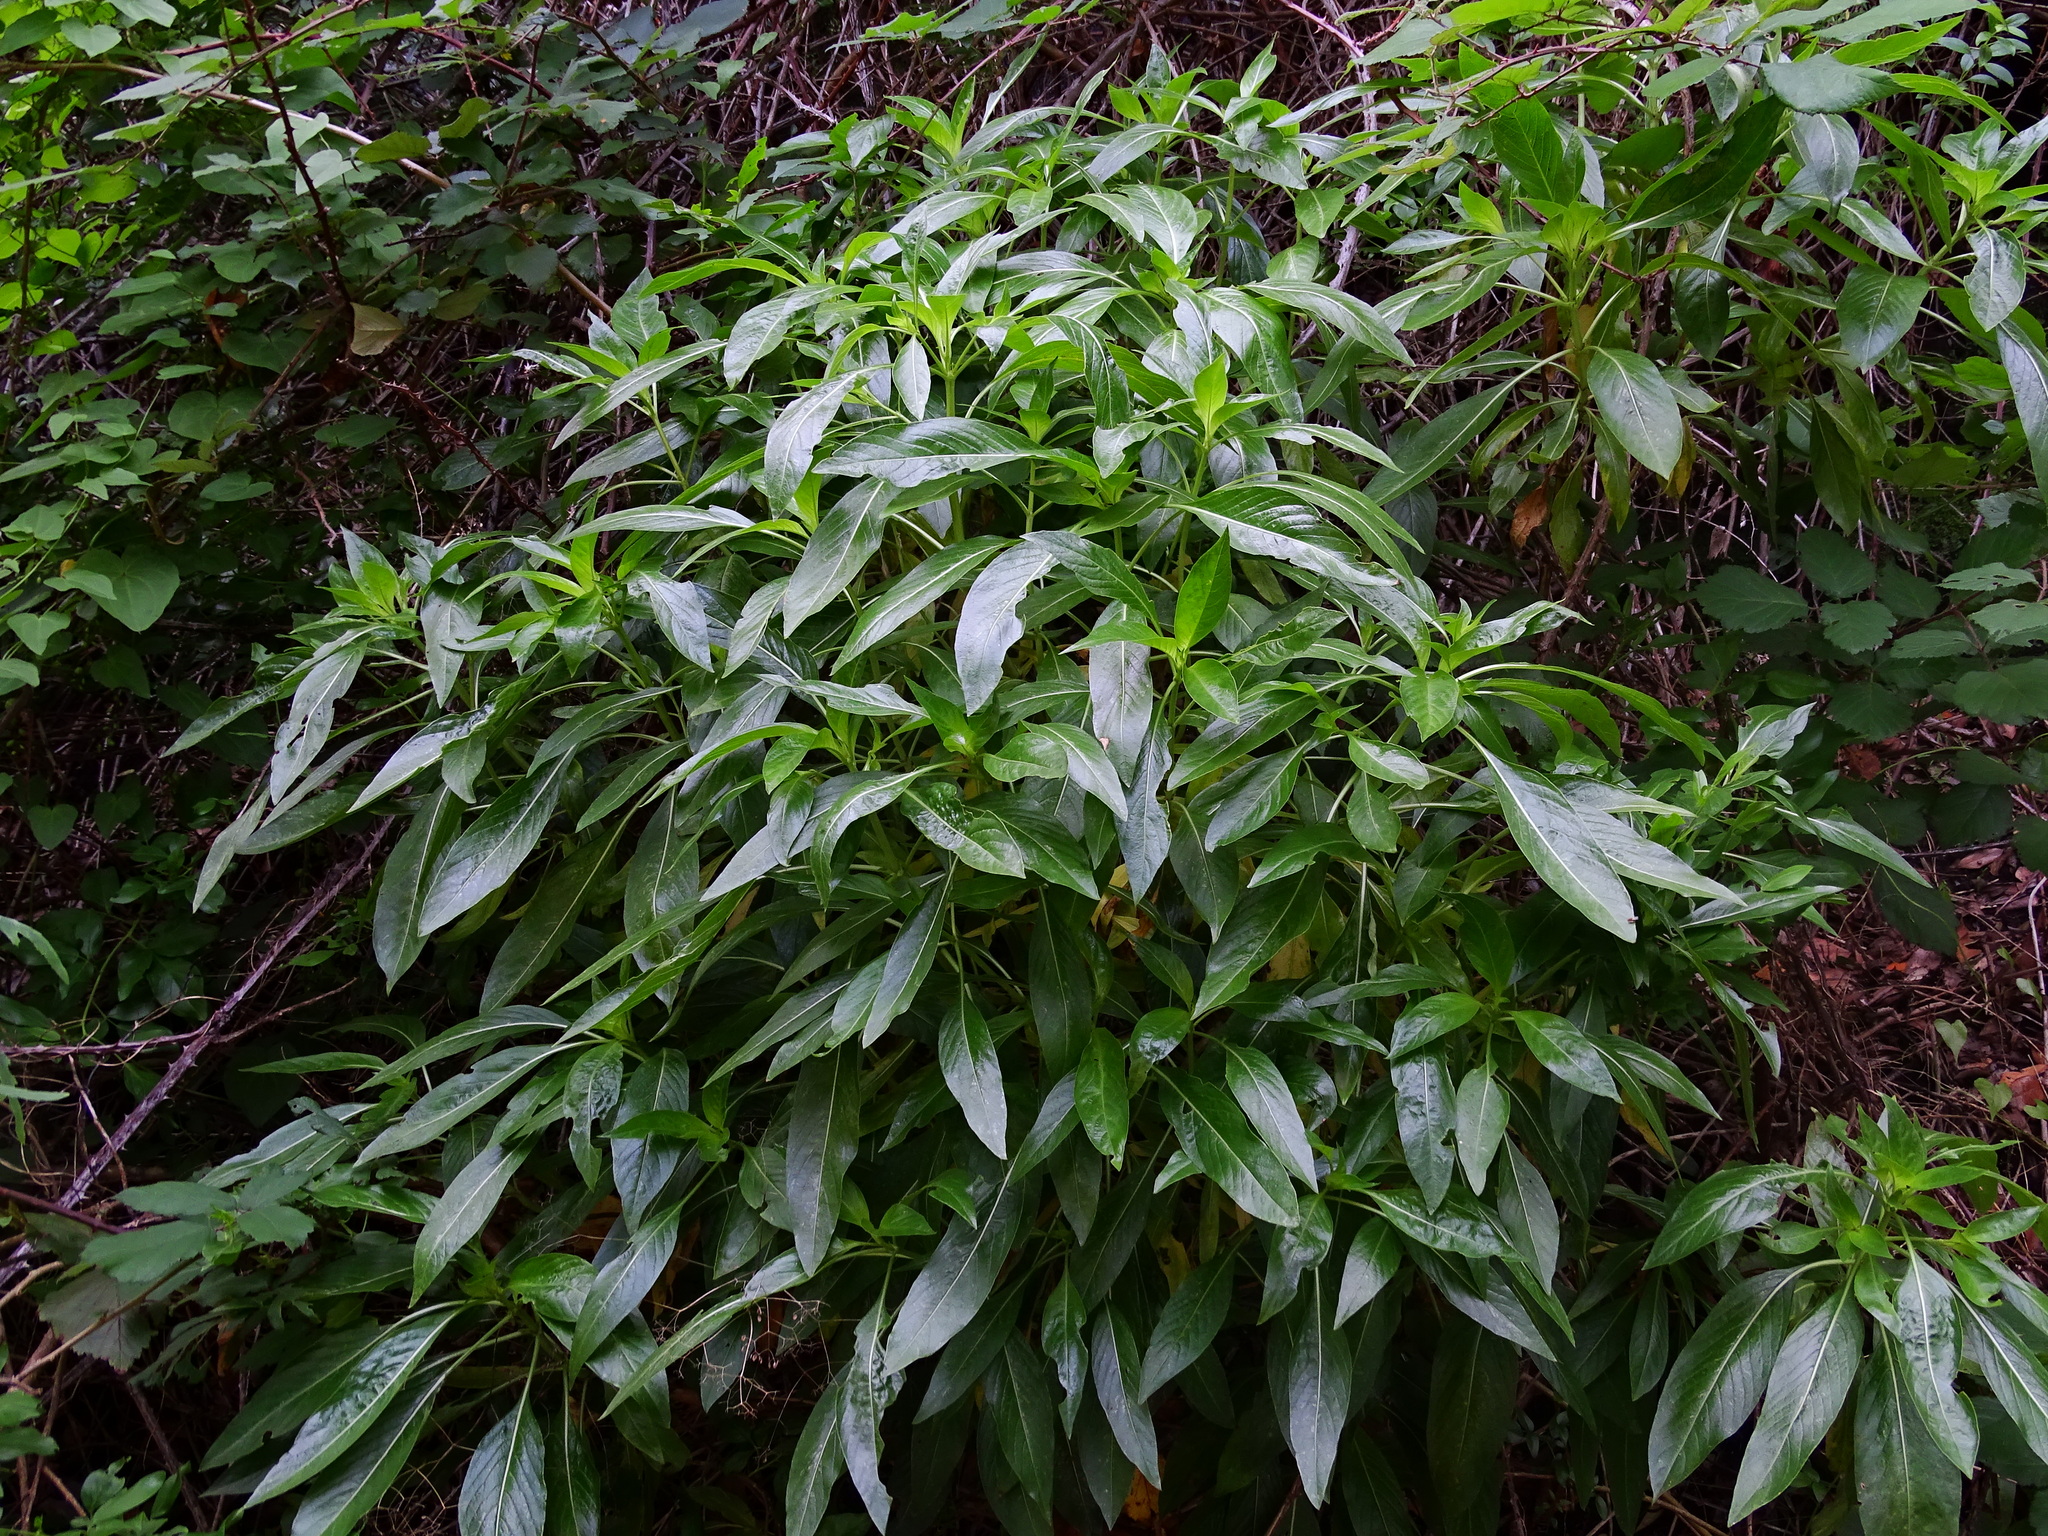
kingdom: Plantae
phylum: Tracheophyta
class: Magnoliopsida
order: Gentianales
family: Rubiaceae
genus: Phyllis
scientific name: Phyllis nobla
